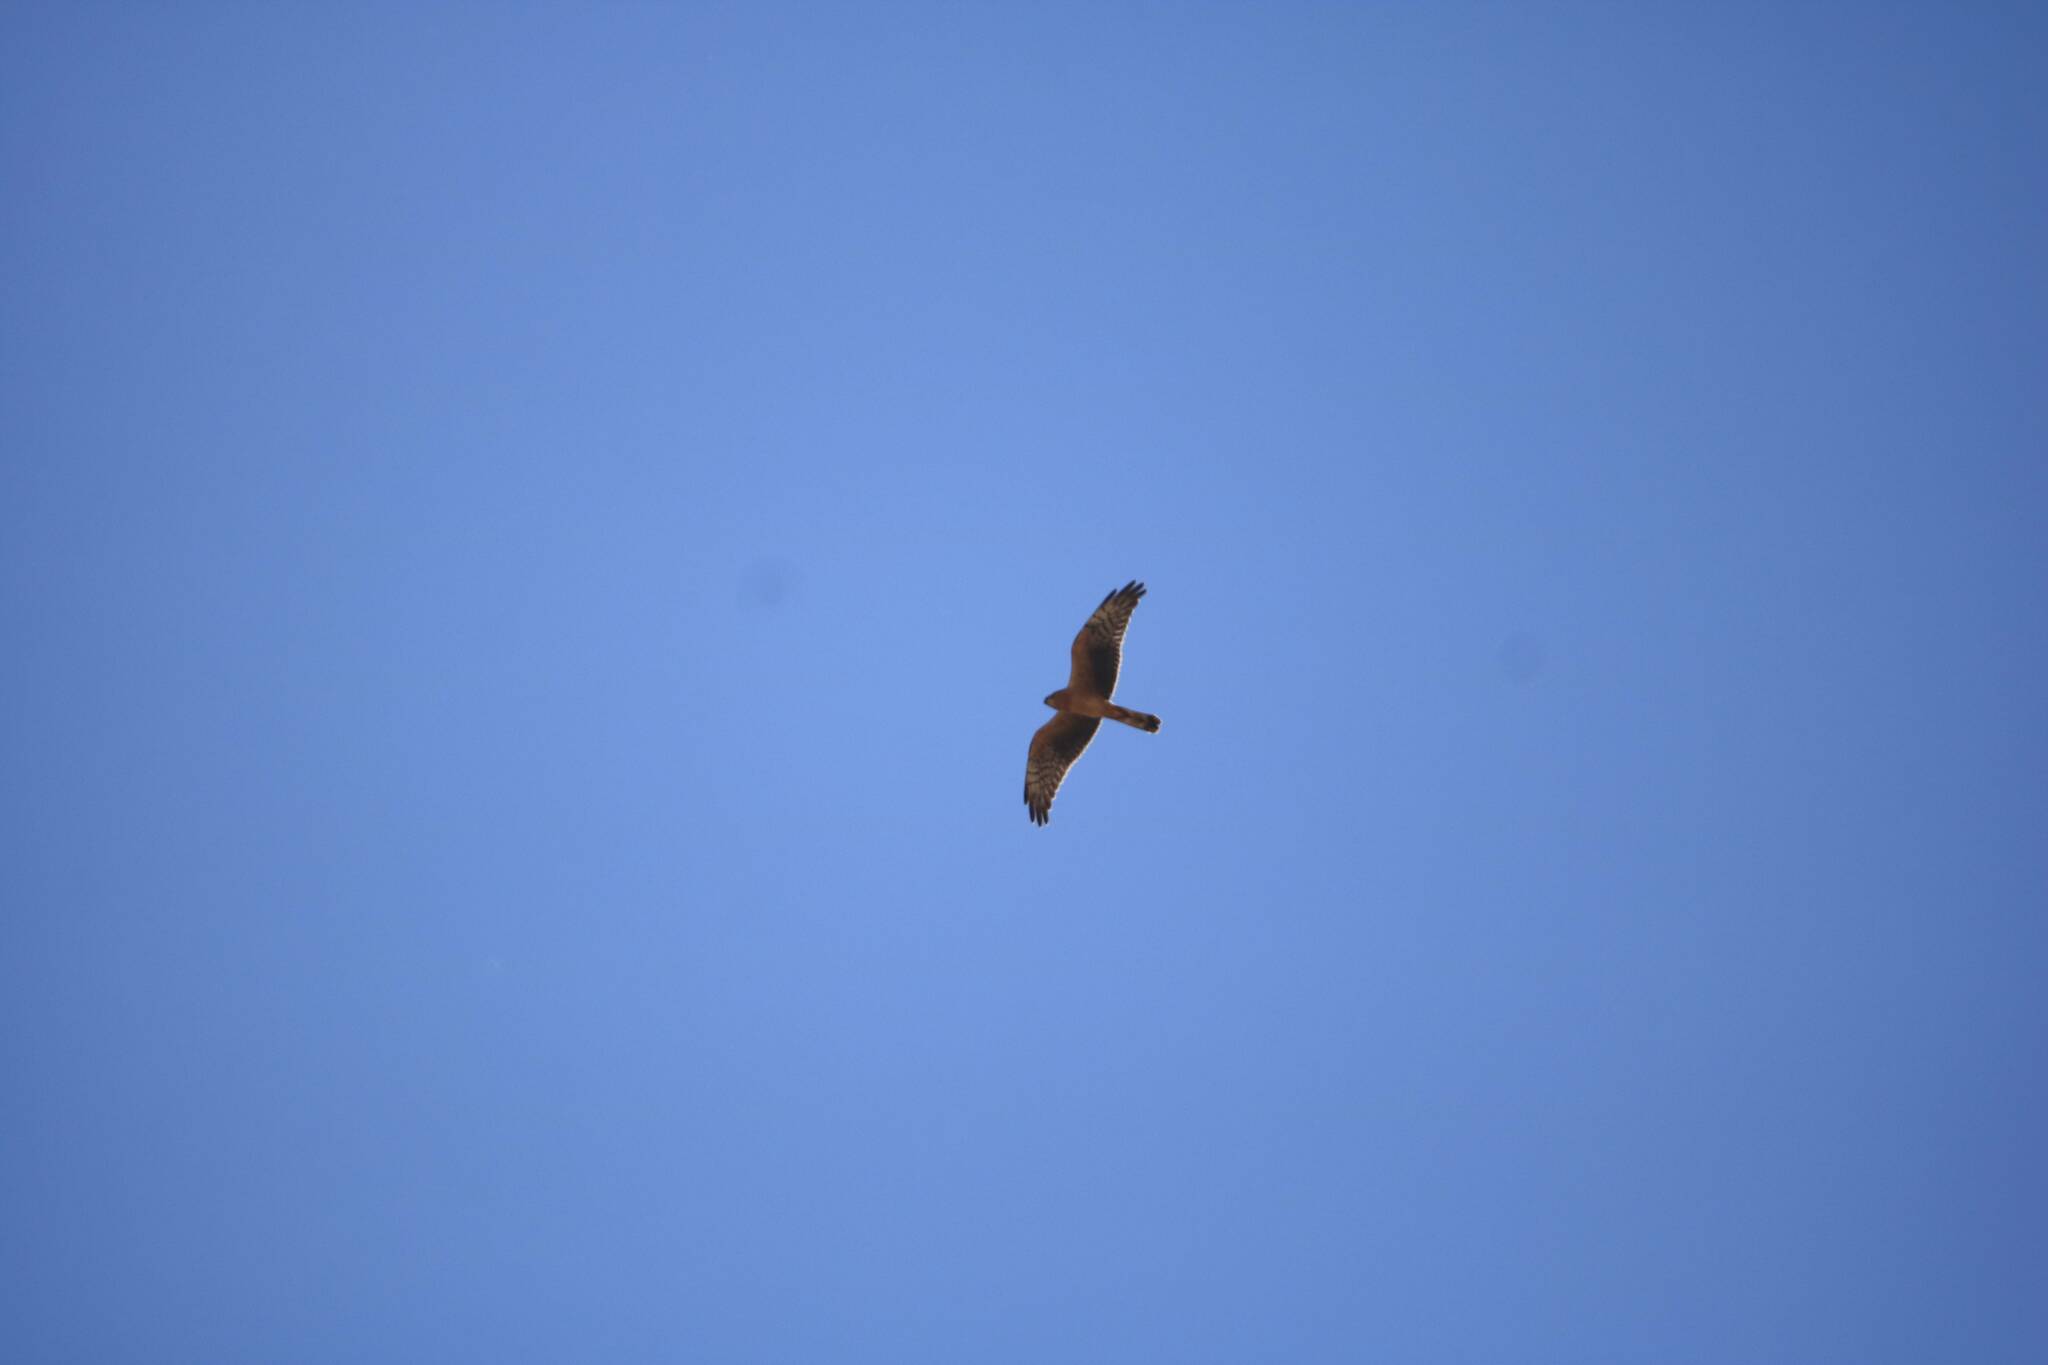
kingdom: Animalia
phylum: Chordata
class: Aves
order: Accipitriformes
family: Accipitridae
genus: Circus
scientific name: Circus pygargus
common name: Montagu's harrier
